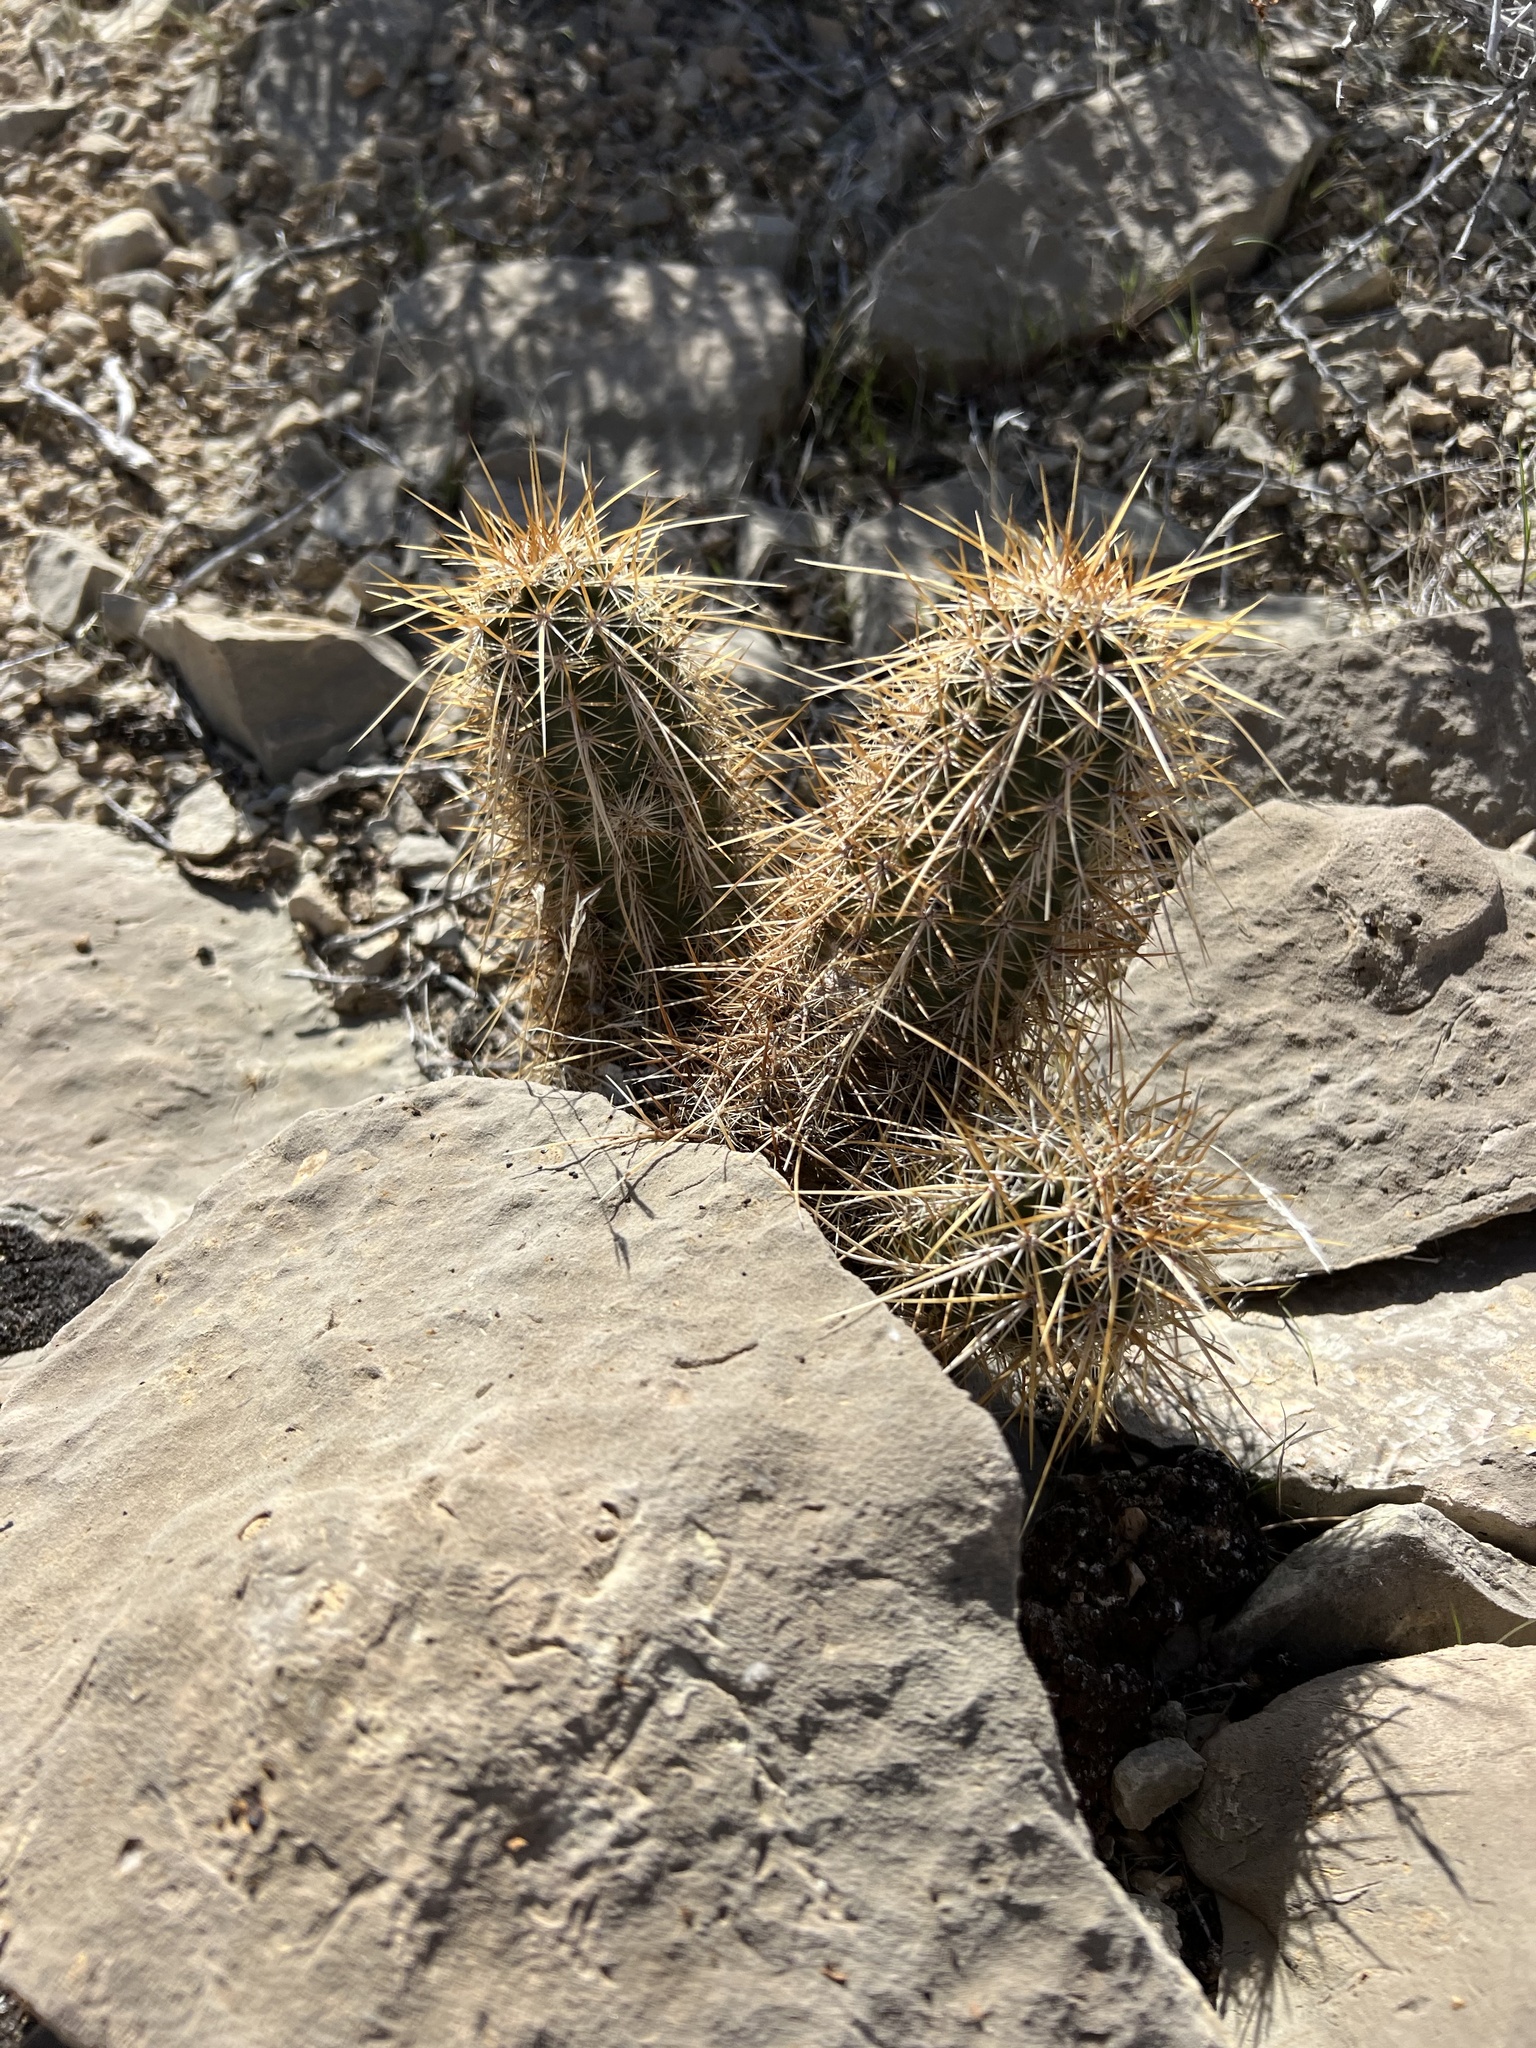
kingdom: Plantae
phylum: Tracheophyta
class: Magnoliopsida
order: Caryophyllales
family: Cactaceae
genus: Echinocereus
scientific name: Echinocereus engelmannii
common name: Engelmann's hedgehog cactus
